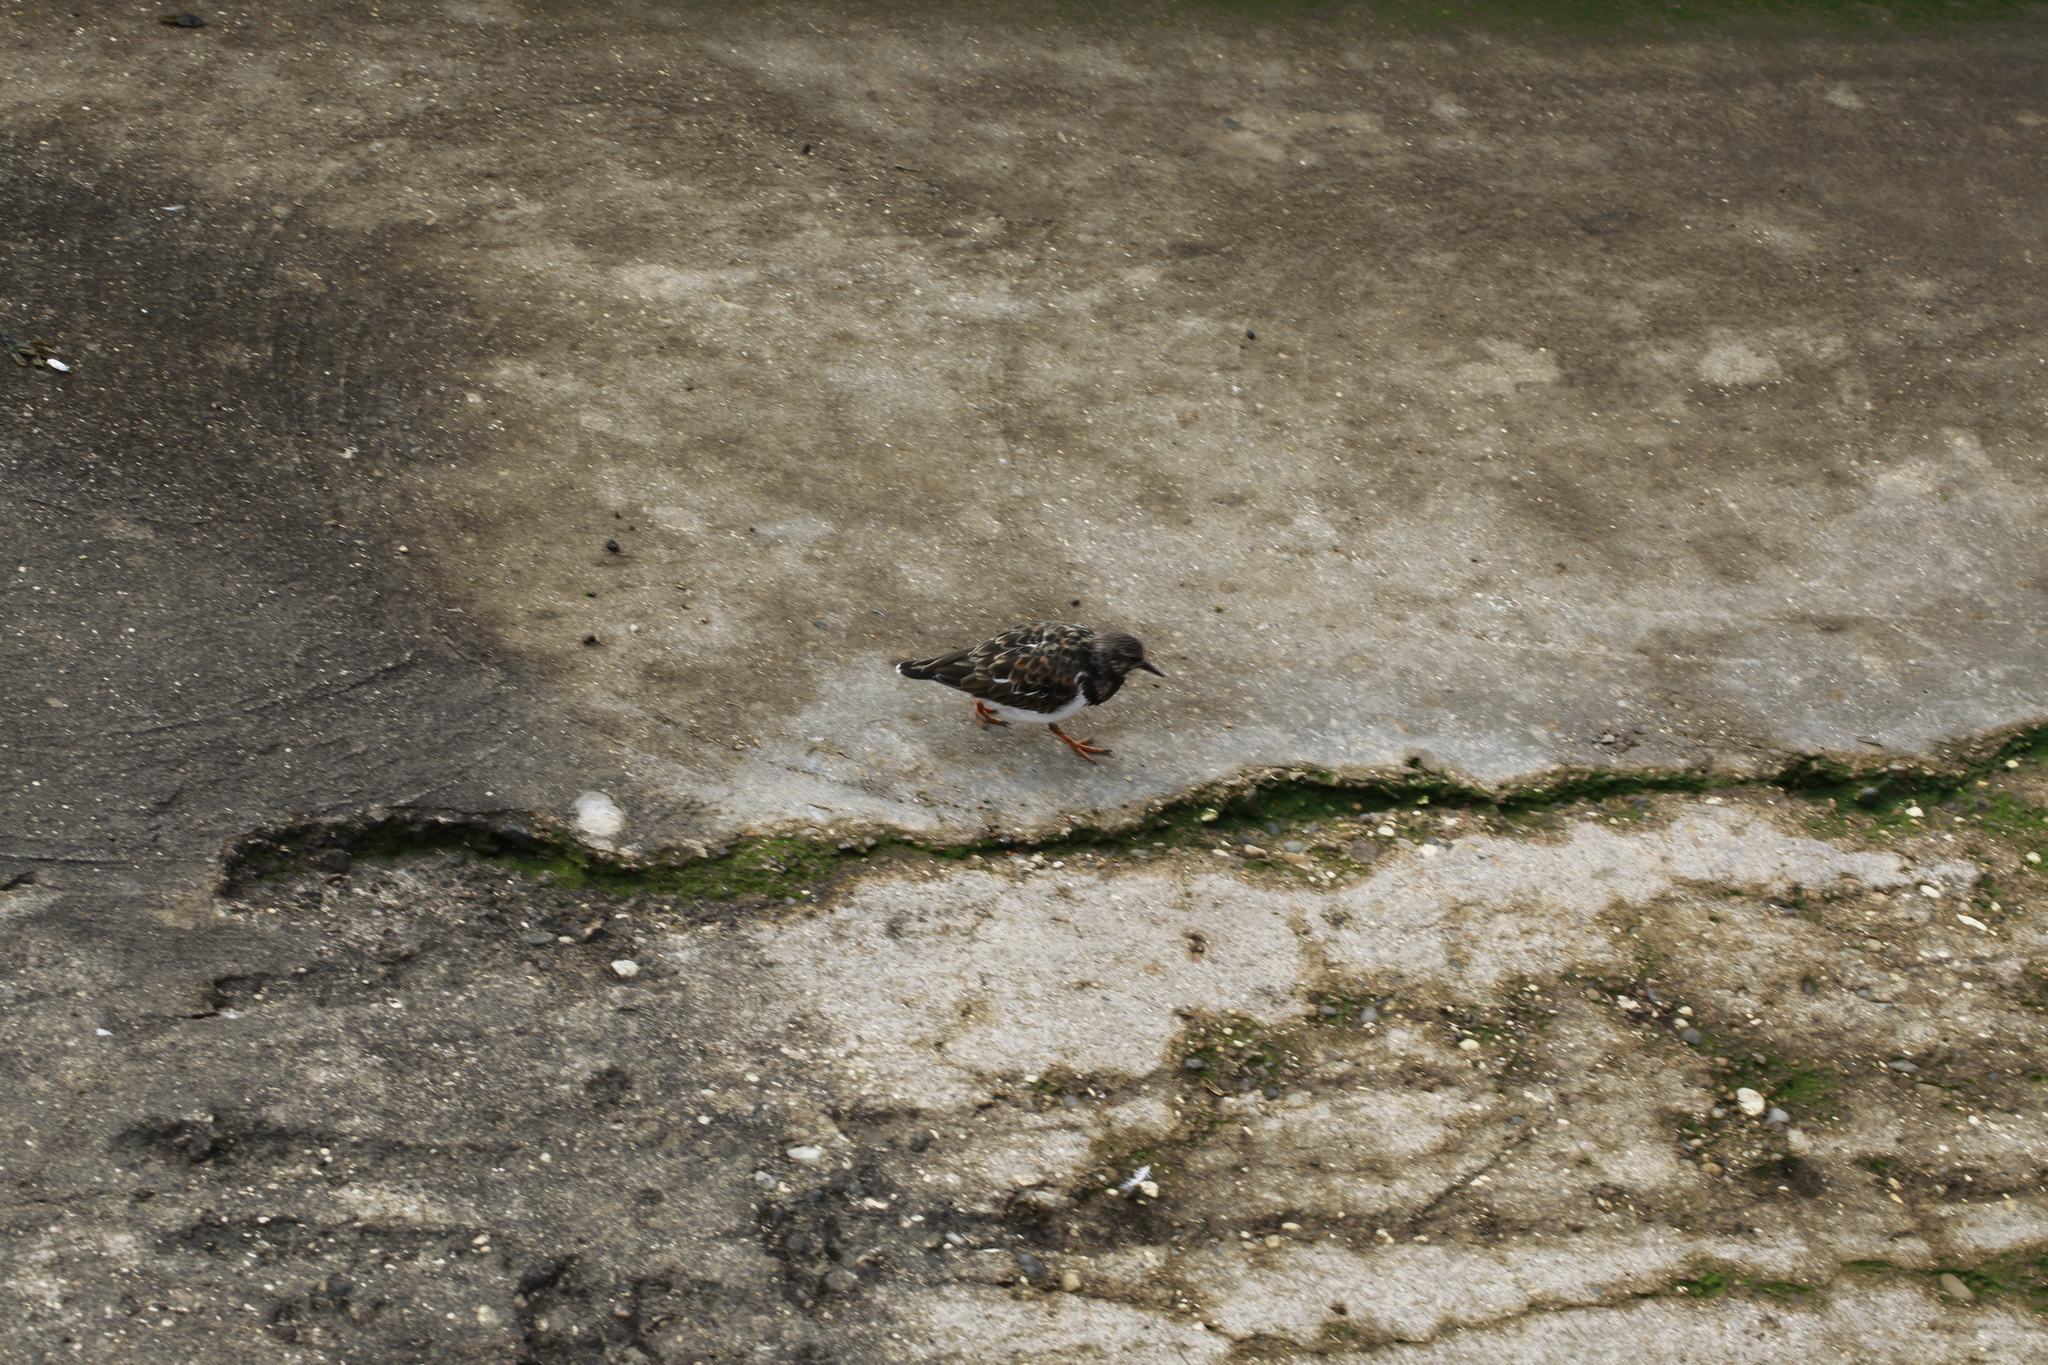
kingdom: Animalia
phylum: Chordata
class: Aves
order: Charadriiformes
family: Scolopacidae
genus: Arenaria
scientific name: Arenaria interpres
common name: Ruddy turnstone
